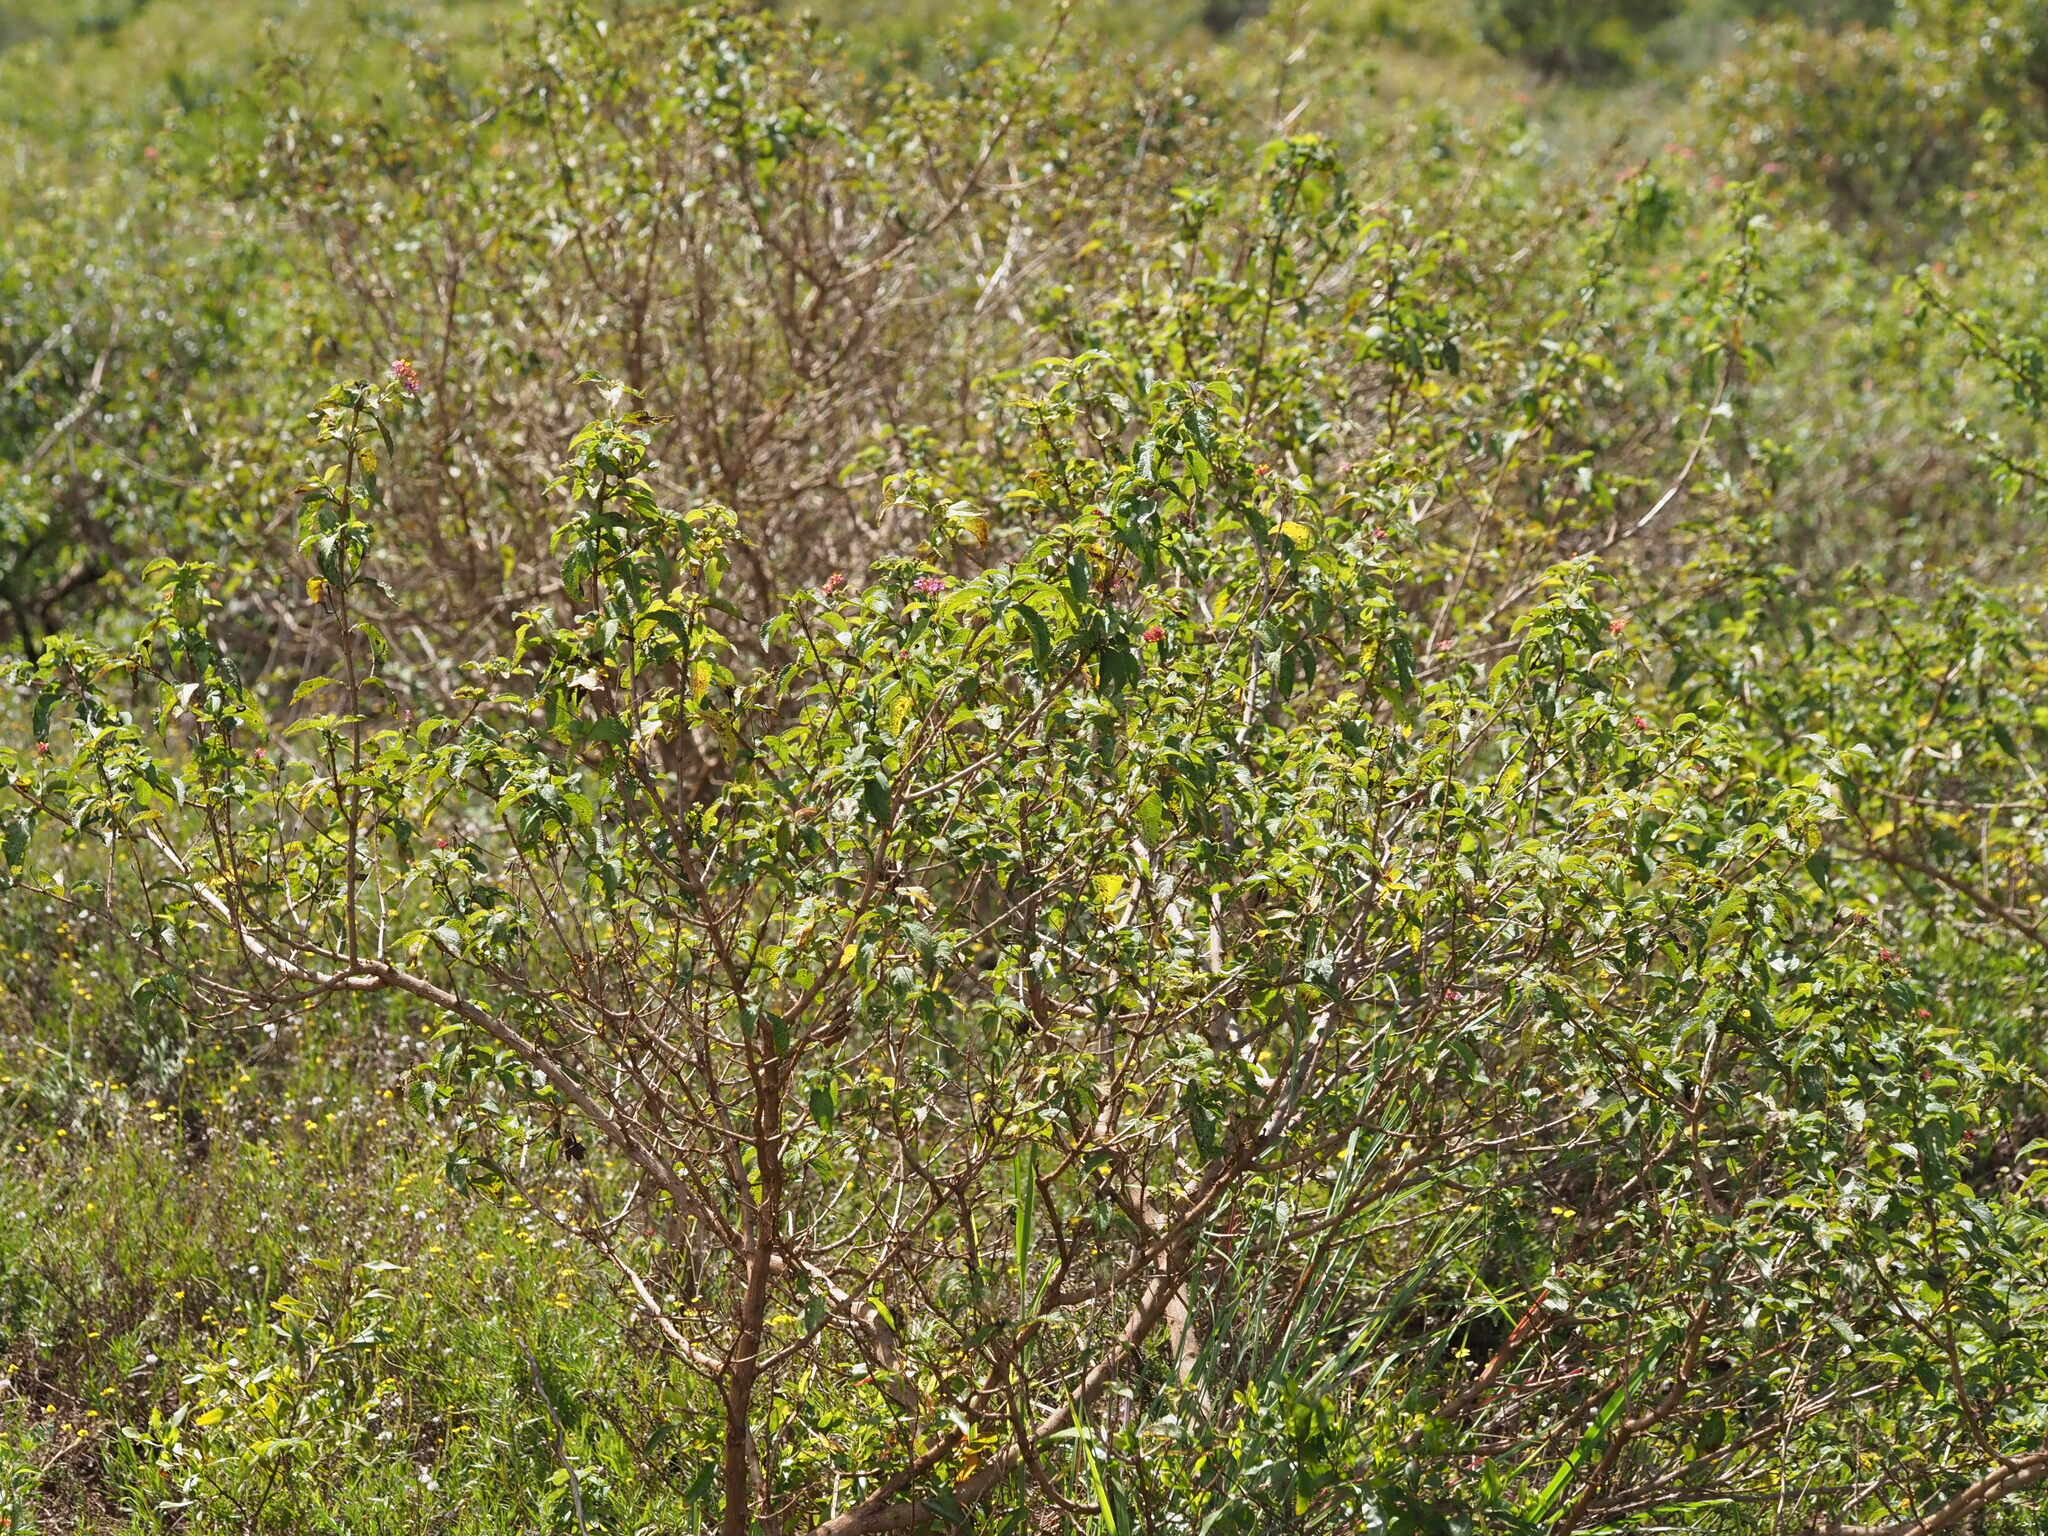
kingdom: Plantae
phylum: Tracheophyta
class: Magnoliopsida
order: Lamiales
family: Verbenaceae
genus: Lantana
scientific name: Lantana camara
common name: Lantana
